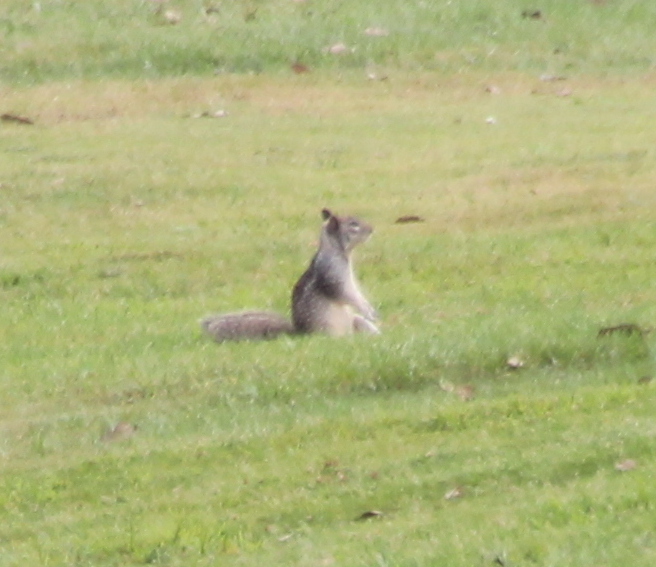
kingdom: Animalia
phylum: Chordata
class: Mammalia
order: Rodentia
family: Sciuridae
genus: Otospermophilus
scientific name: Otospermophilus beecheyi
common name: California ground squirrel
